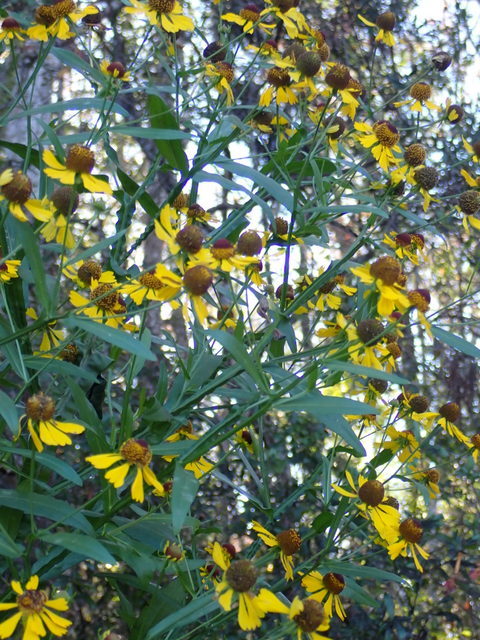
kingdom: Plantae
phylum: Tracheophyta
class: Magnoliopsida
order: Asterales
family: Asteraceae
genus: Helenium
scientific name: Helenium flexuosum
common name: Naked-flowered sneezeweed
